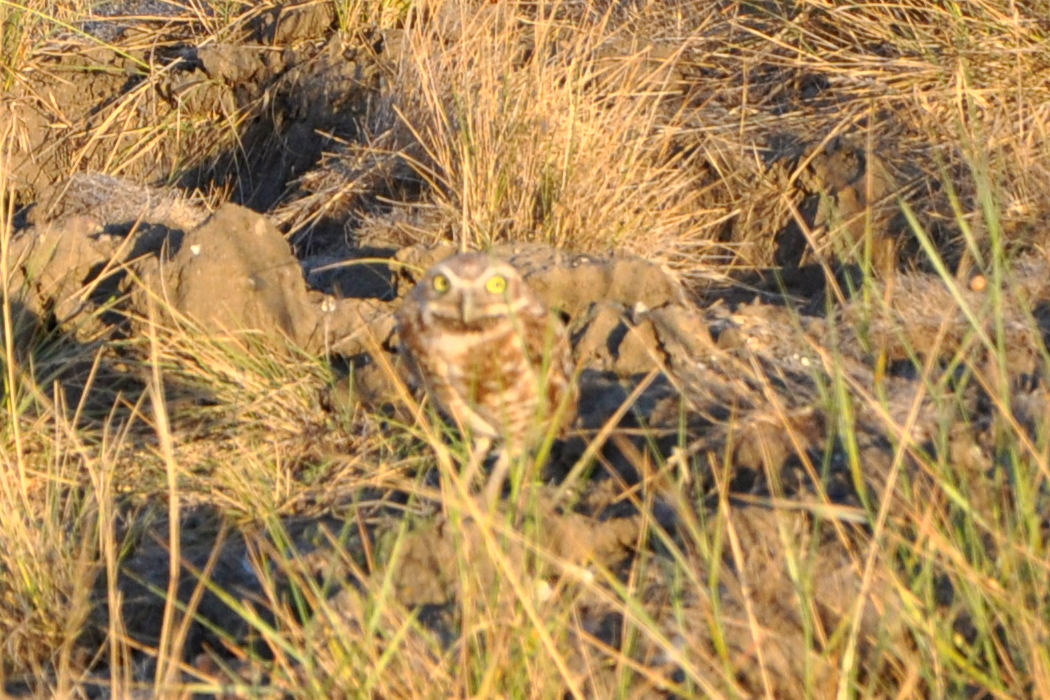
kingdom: Animalia
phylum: Chordata
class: Aves
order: Strigiformes
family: Strigidae
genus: Athene
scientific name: Athene cunicularia
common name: Burrowing owl
